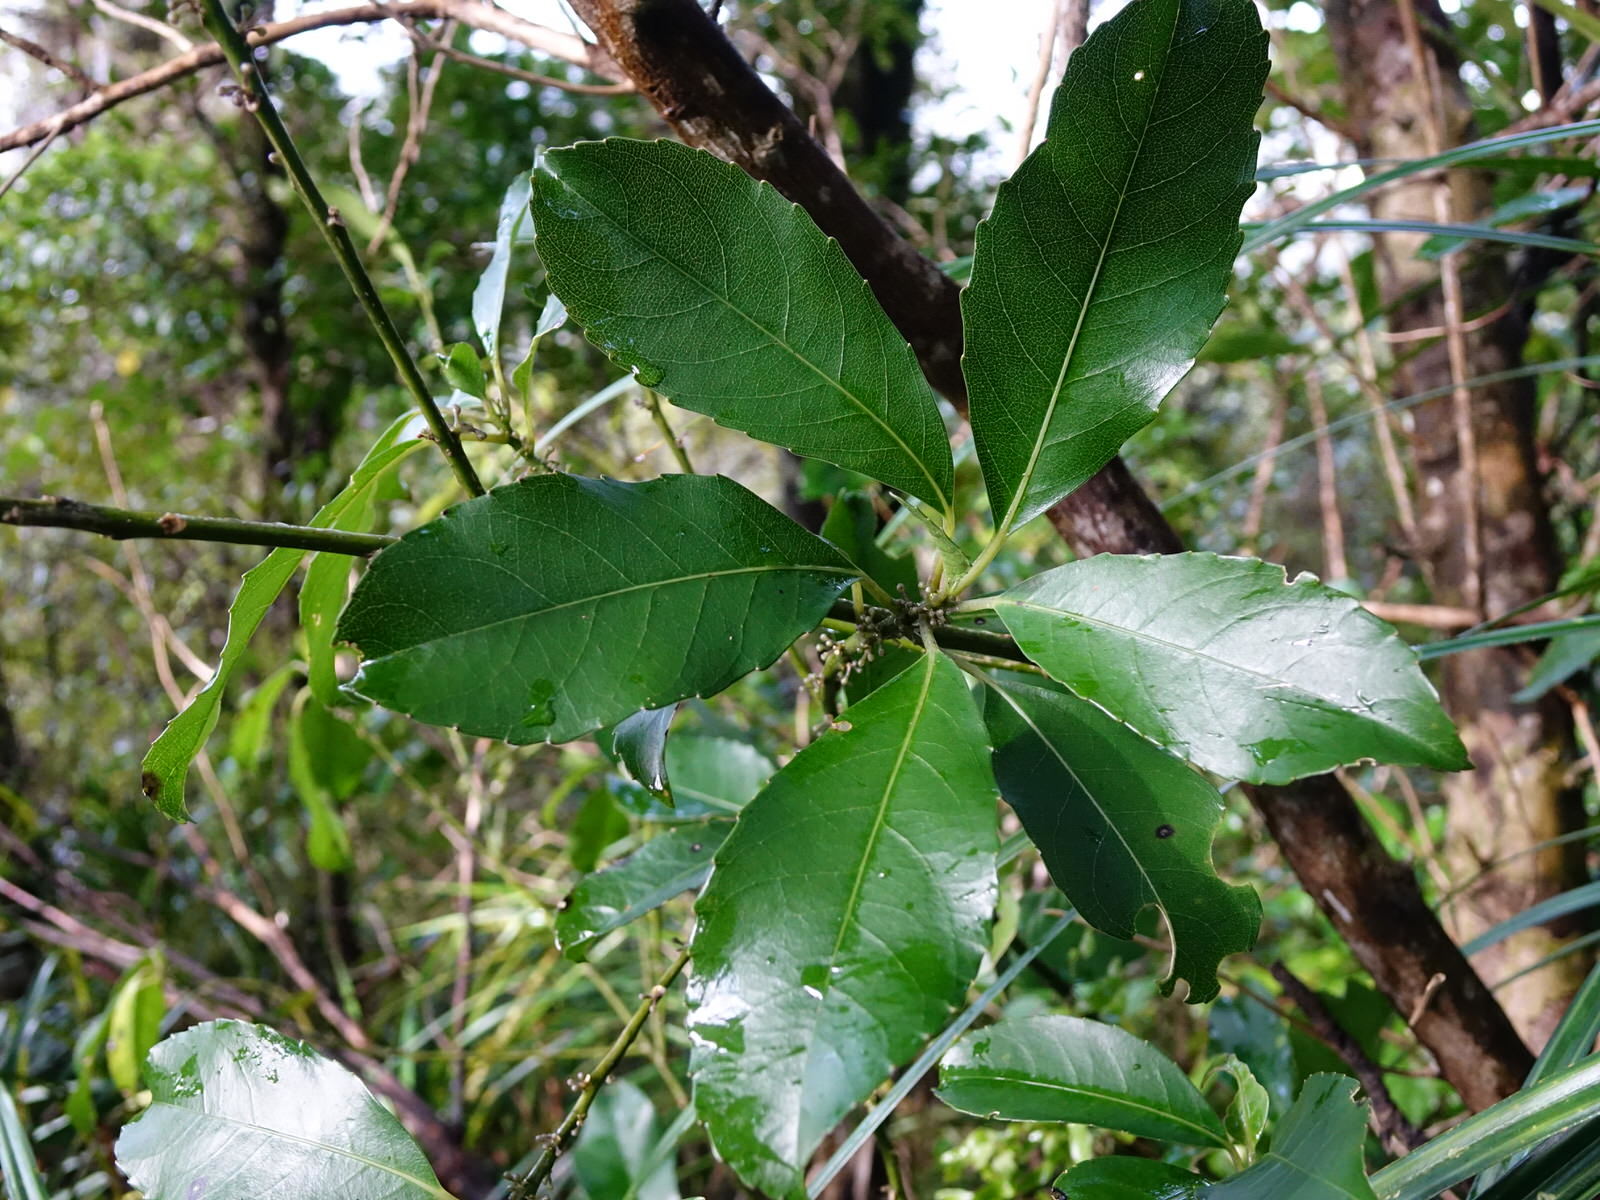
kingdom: Plantae
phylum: Tracheophyta
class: Magnoliopsida
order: Malpighiales
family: Violaceae
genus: Melicytus
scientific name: Melicytus macrophyllus
